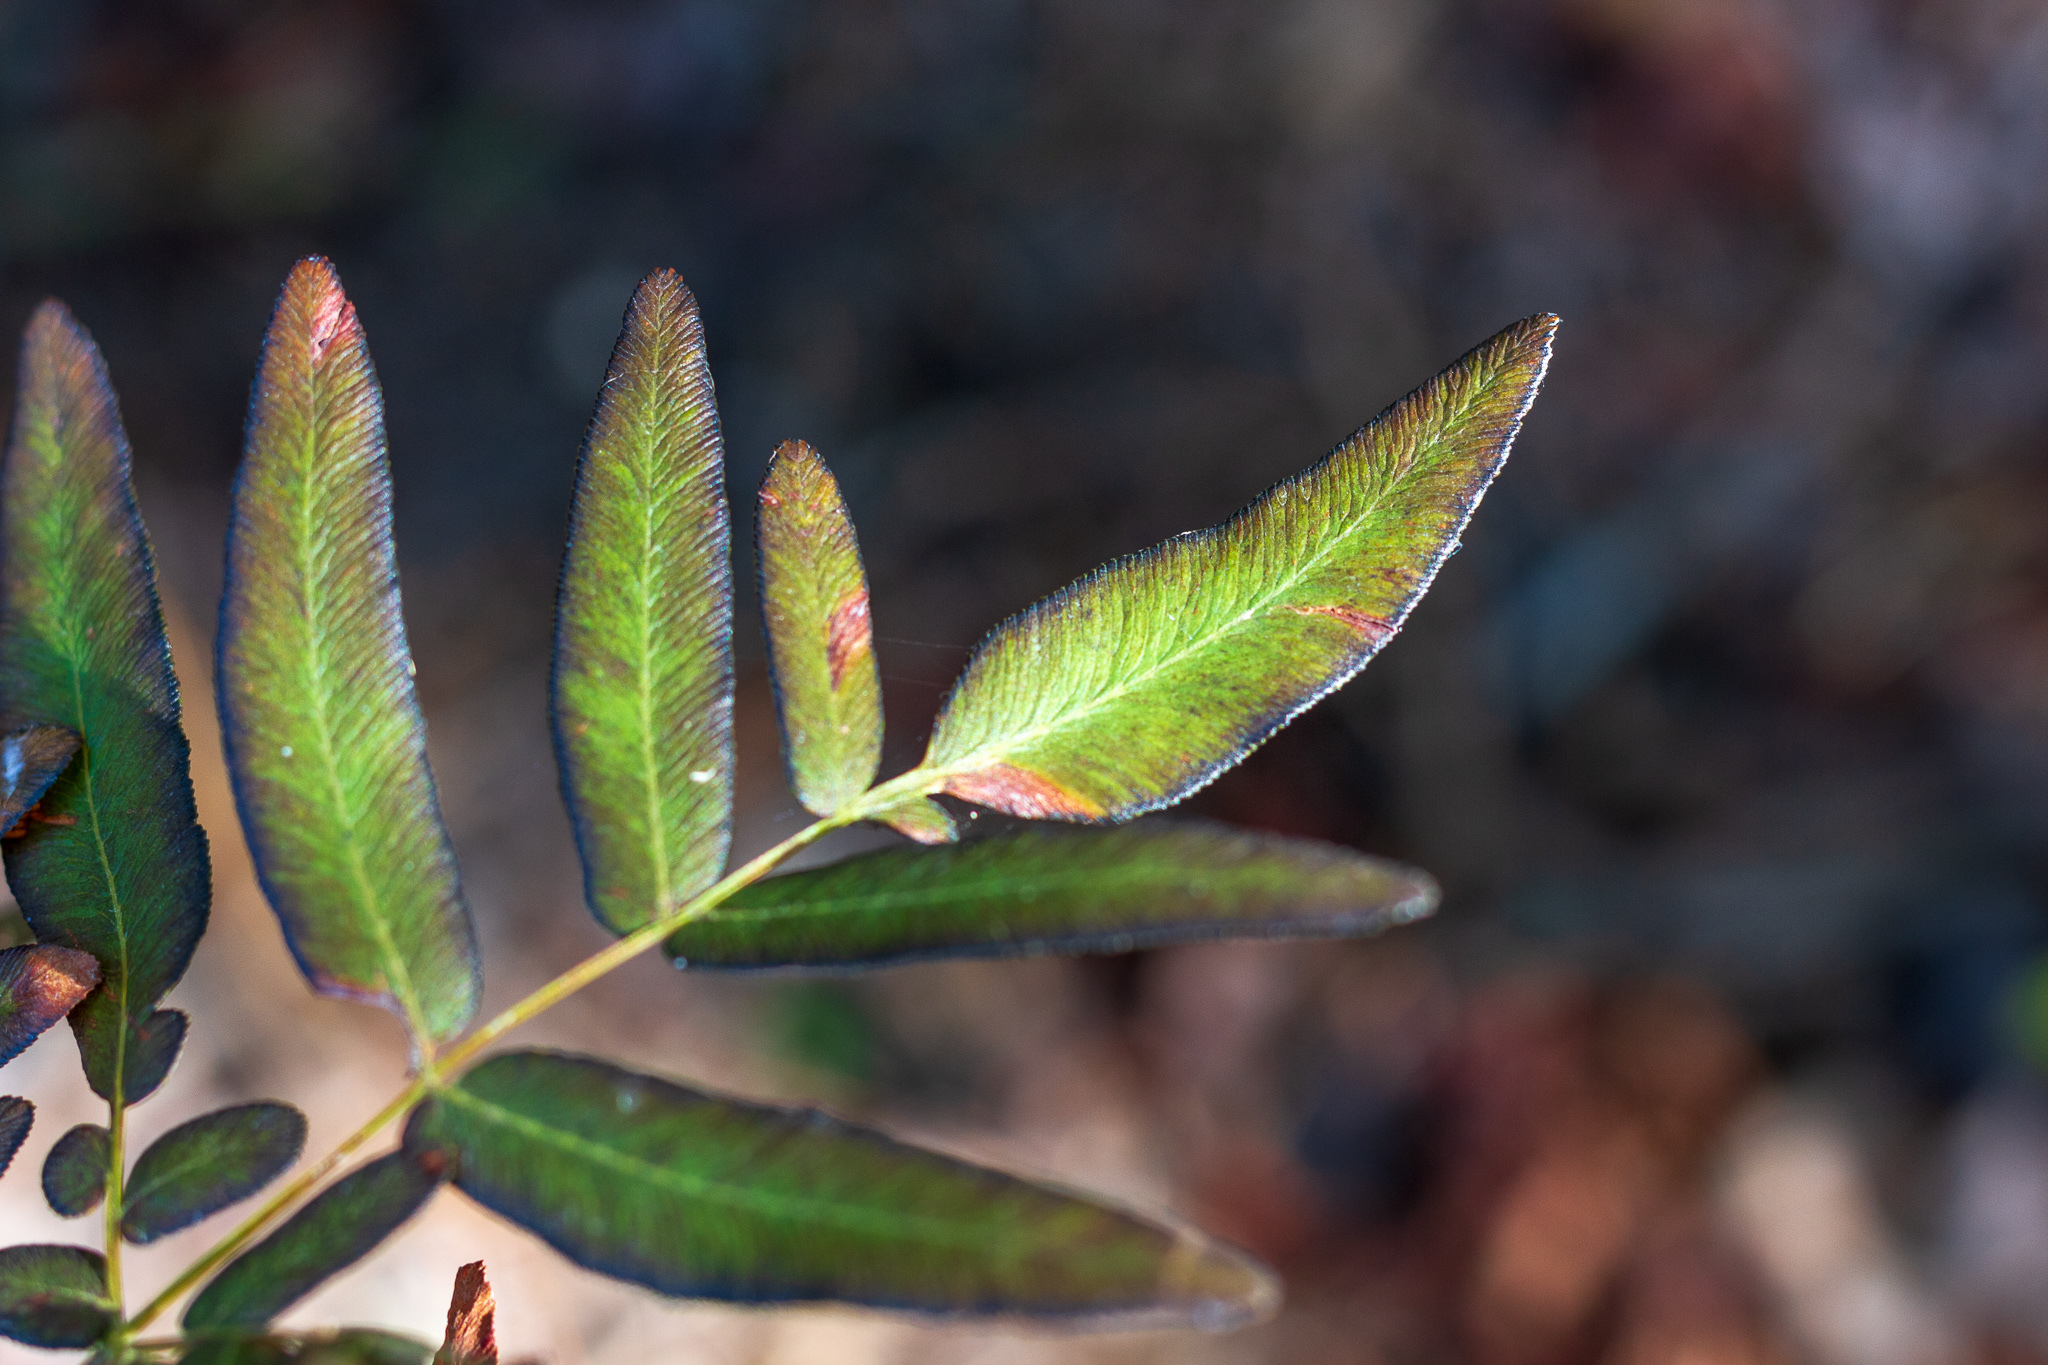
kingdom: Plantae
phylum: Tracheophyta
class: Polypodiopsida
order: Osmundales
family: Osmundaceae
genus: Osmunda
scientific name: Osmunda spectabilis
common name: American royal fern
